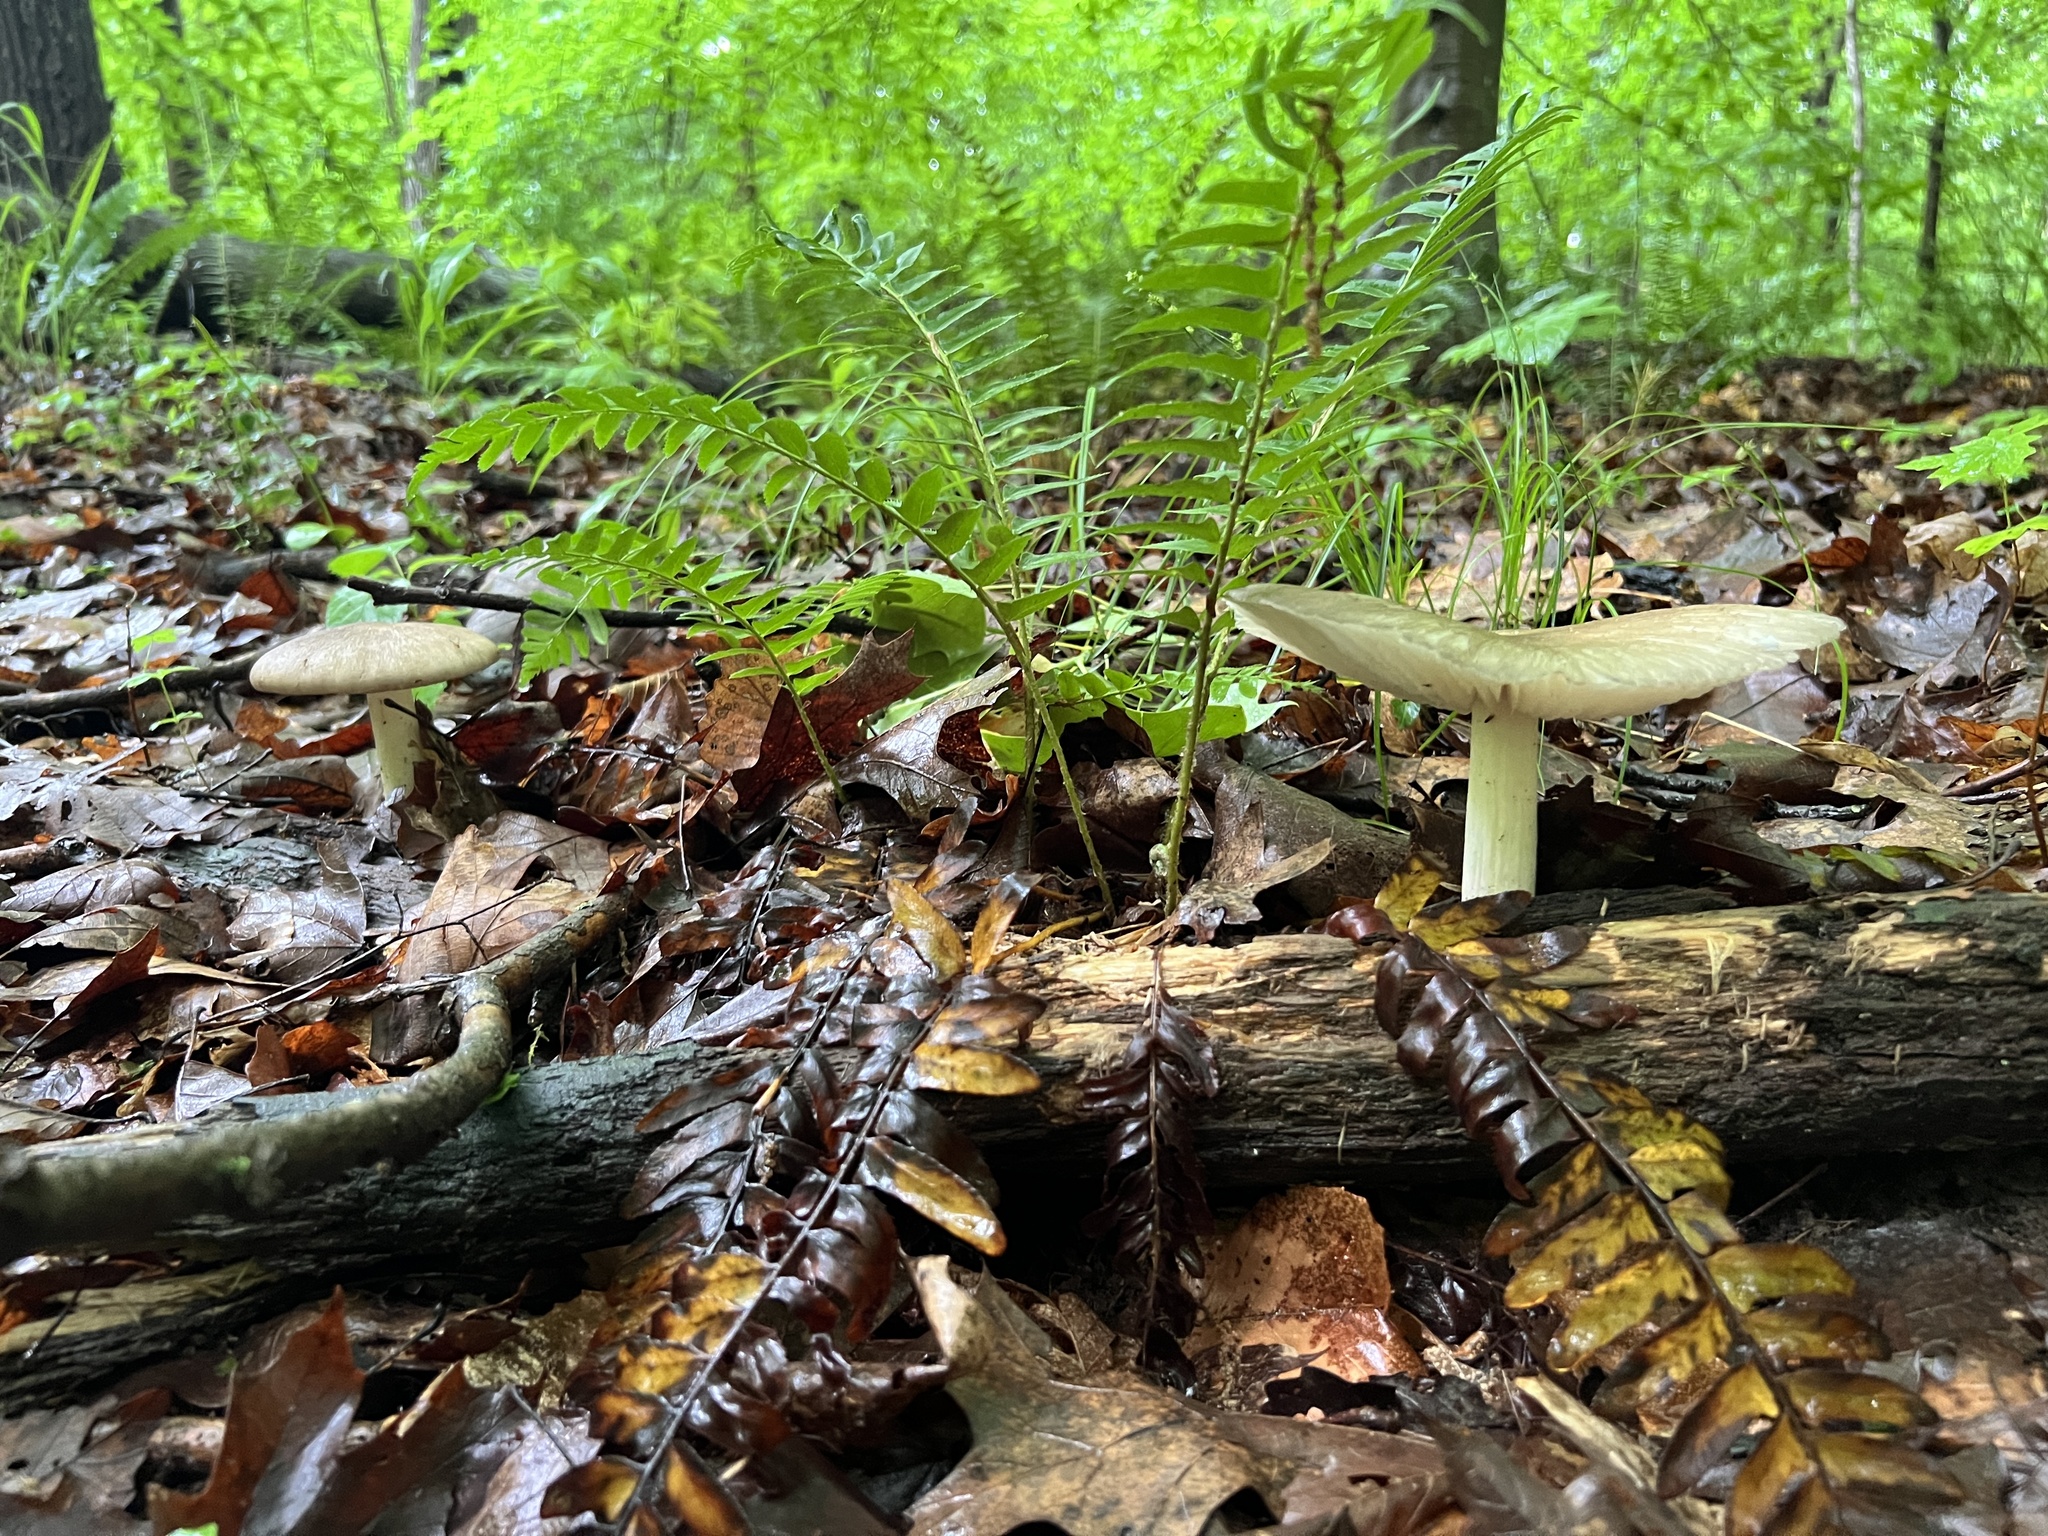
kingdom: Fungi
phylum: Basidiomycota
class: Agaricomycetes
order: Agaricales
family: Tricholomataceae
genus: Megacollybia
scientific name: Megacollybia rodmanii
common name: Eastern american platterful mushroom
